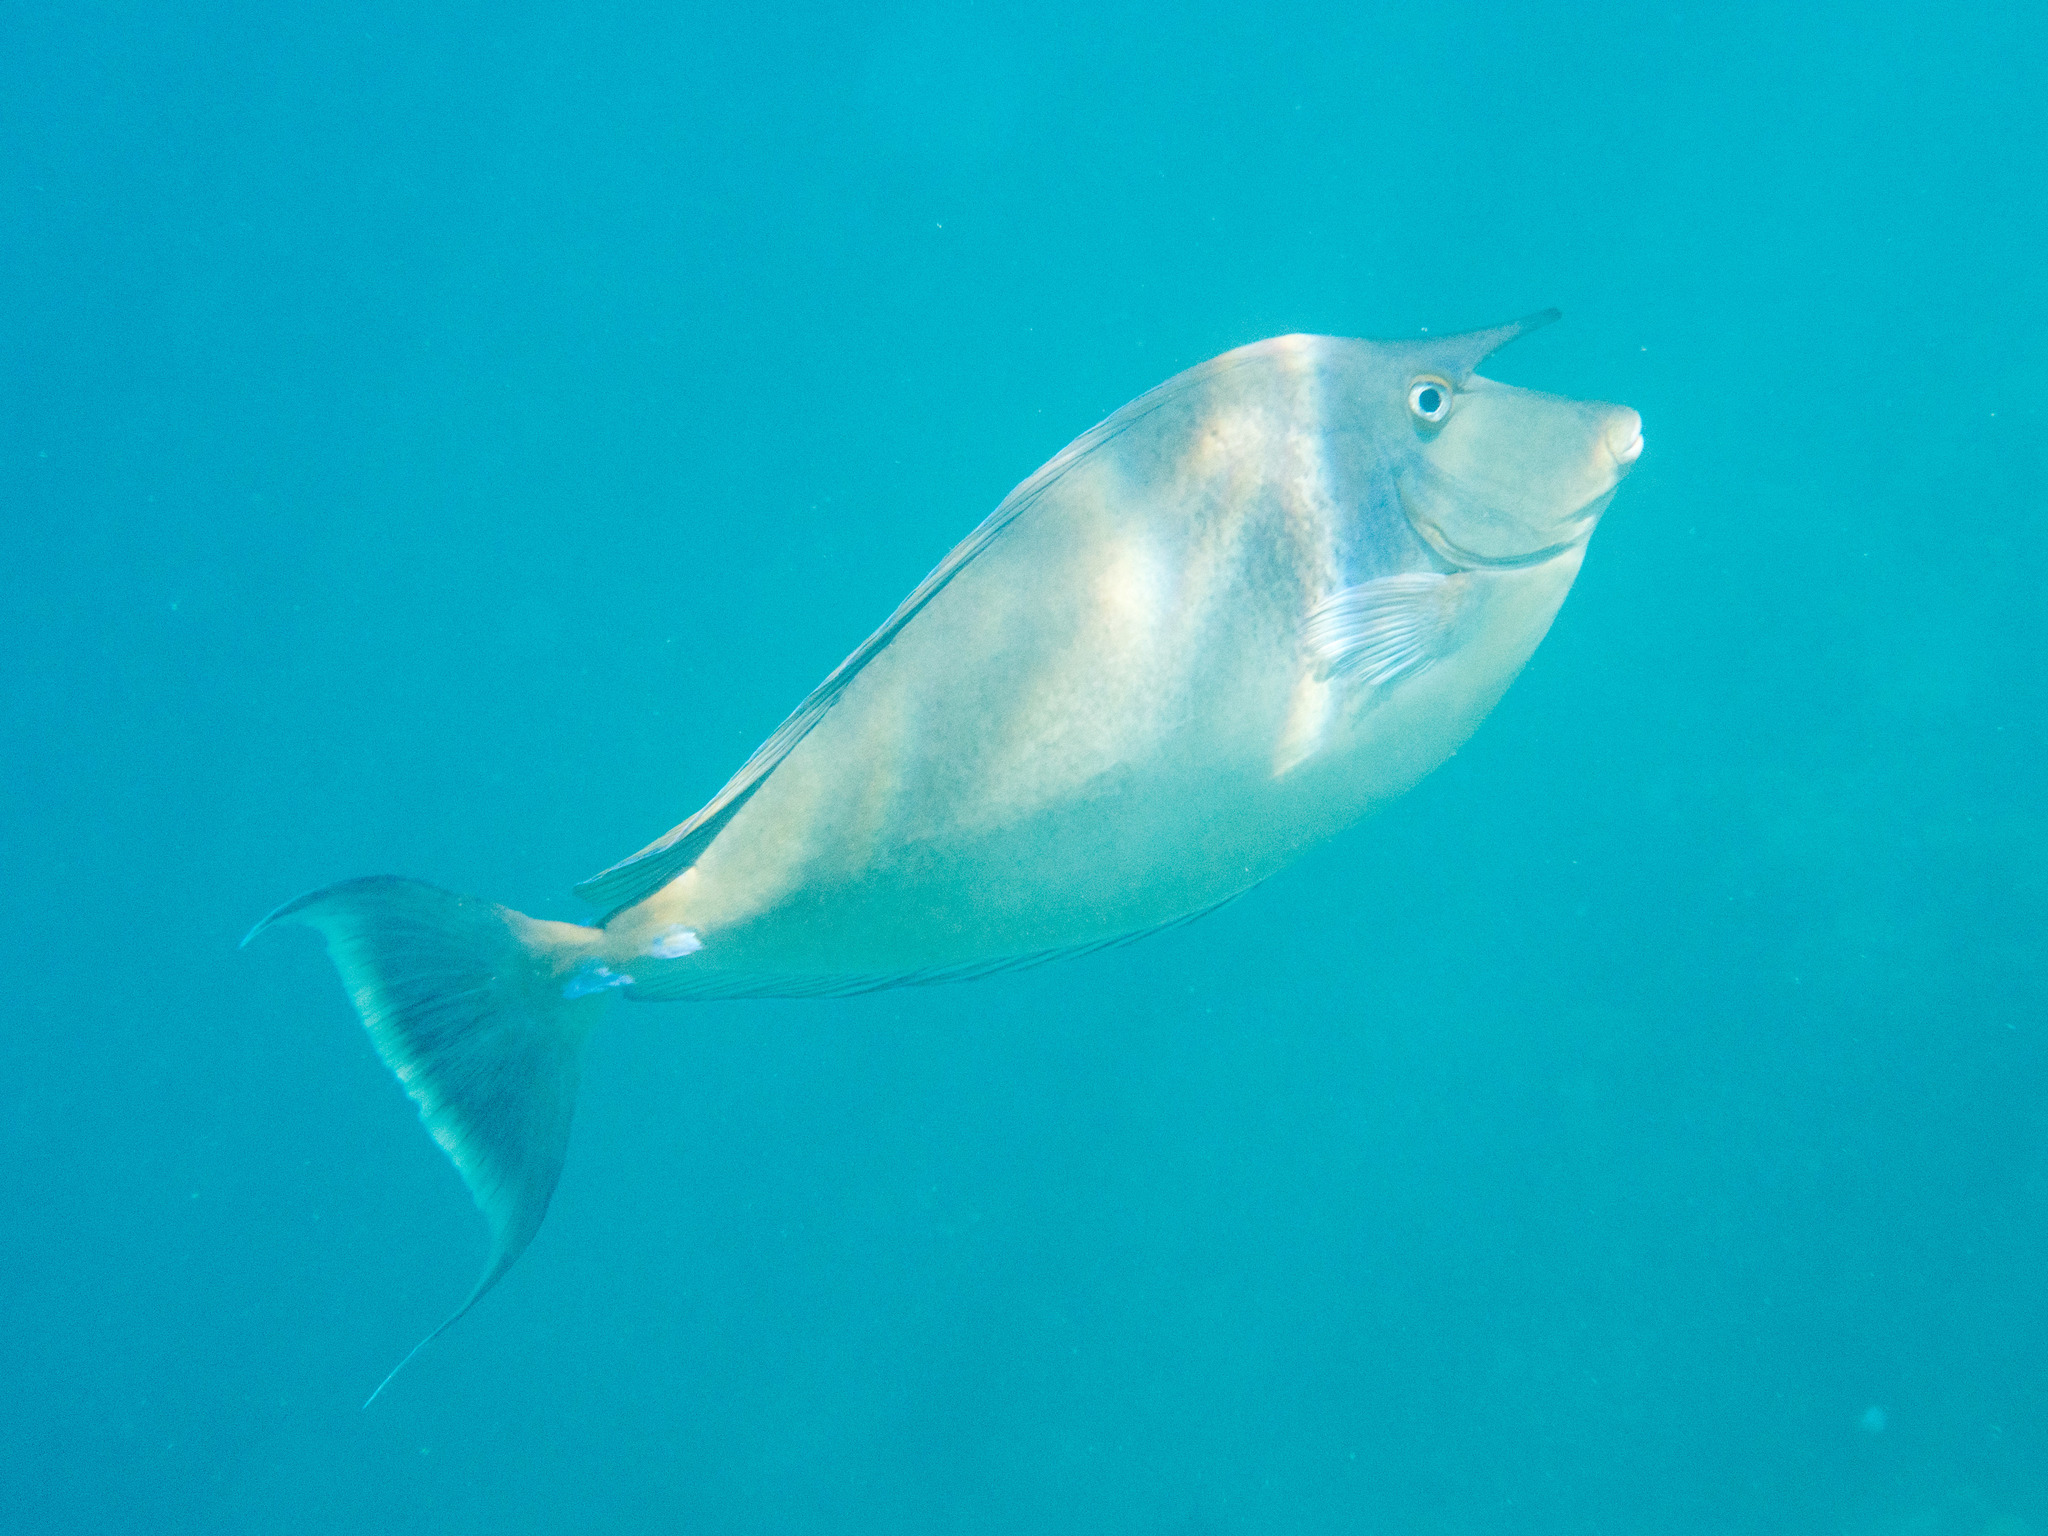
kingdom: Animalia
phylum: Chordata
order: Perciformes
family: Acanthuridae
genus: Naso
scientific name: Naso unicornis
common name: Bluespine unicornfish
